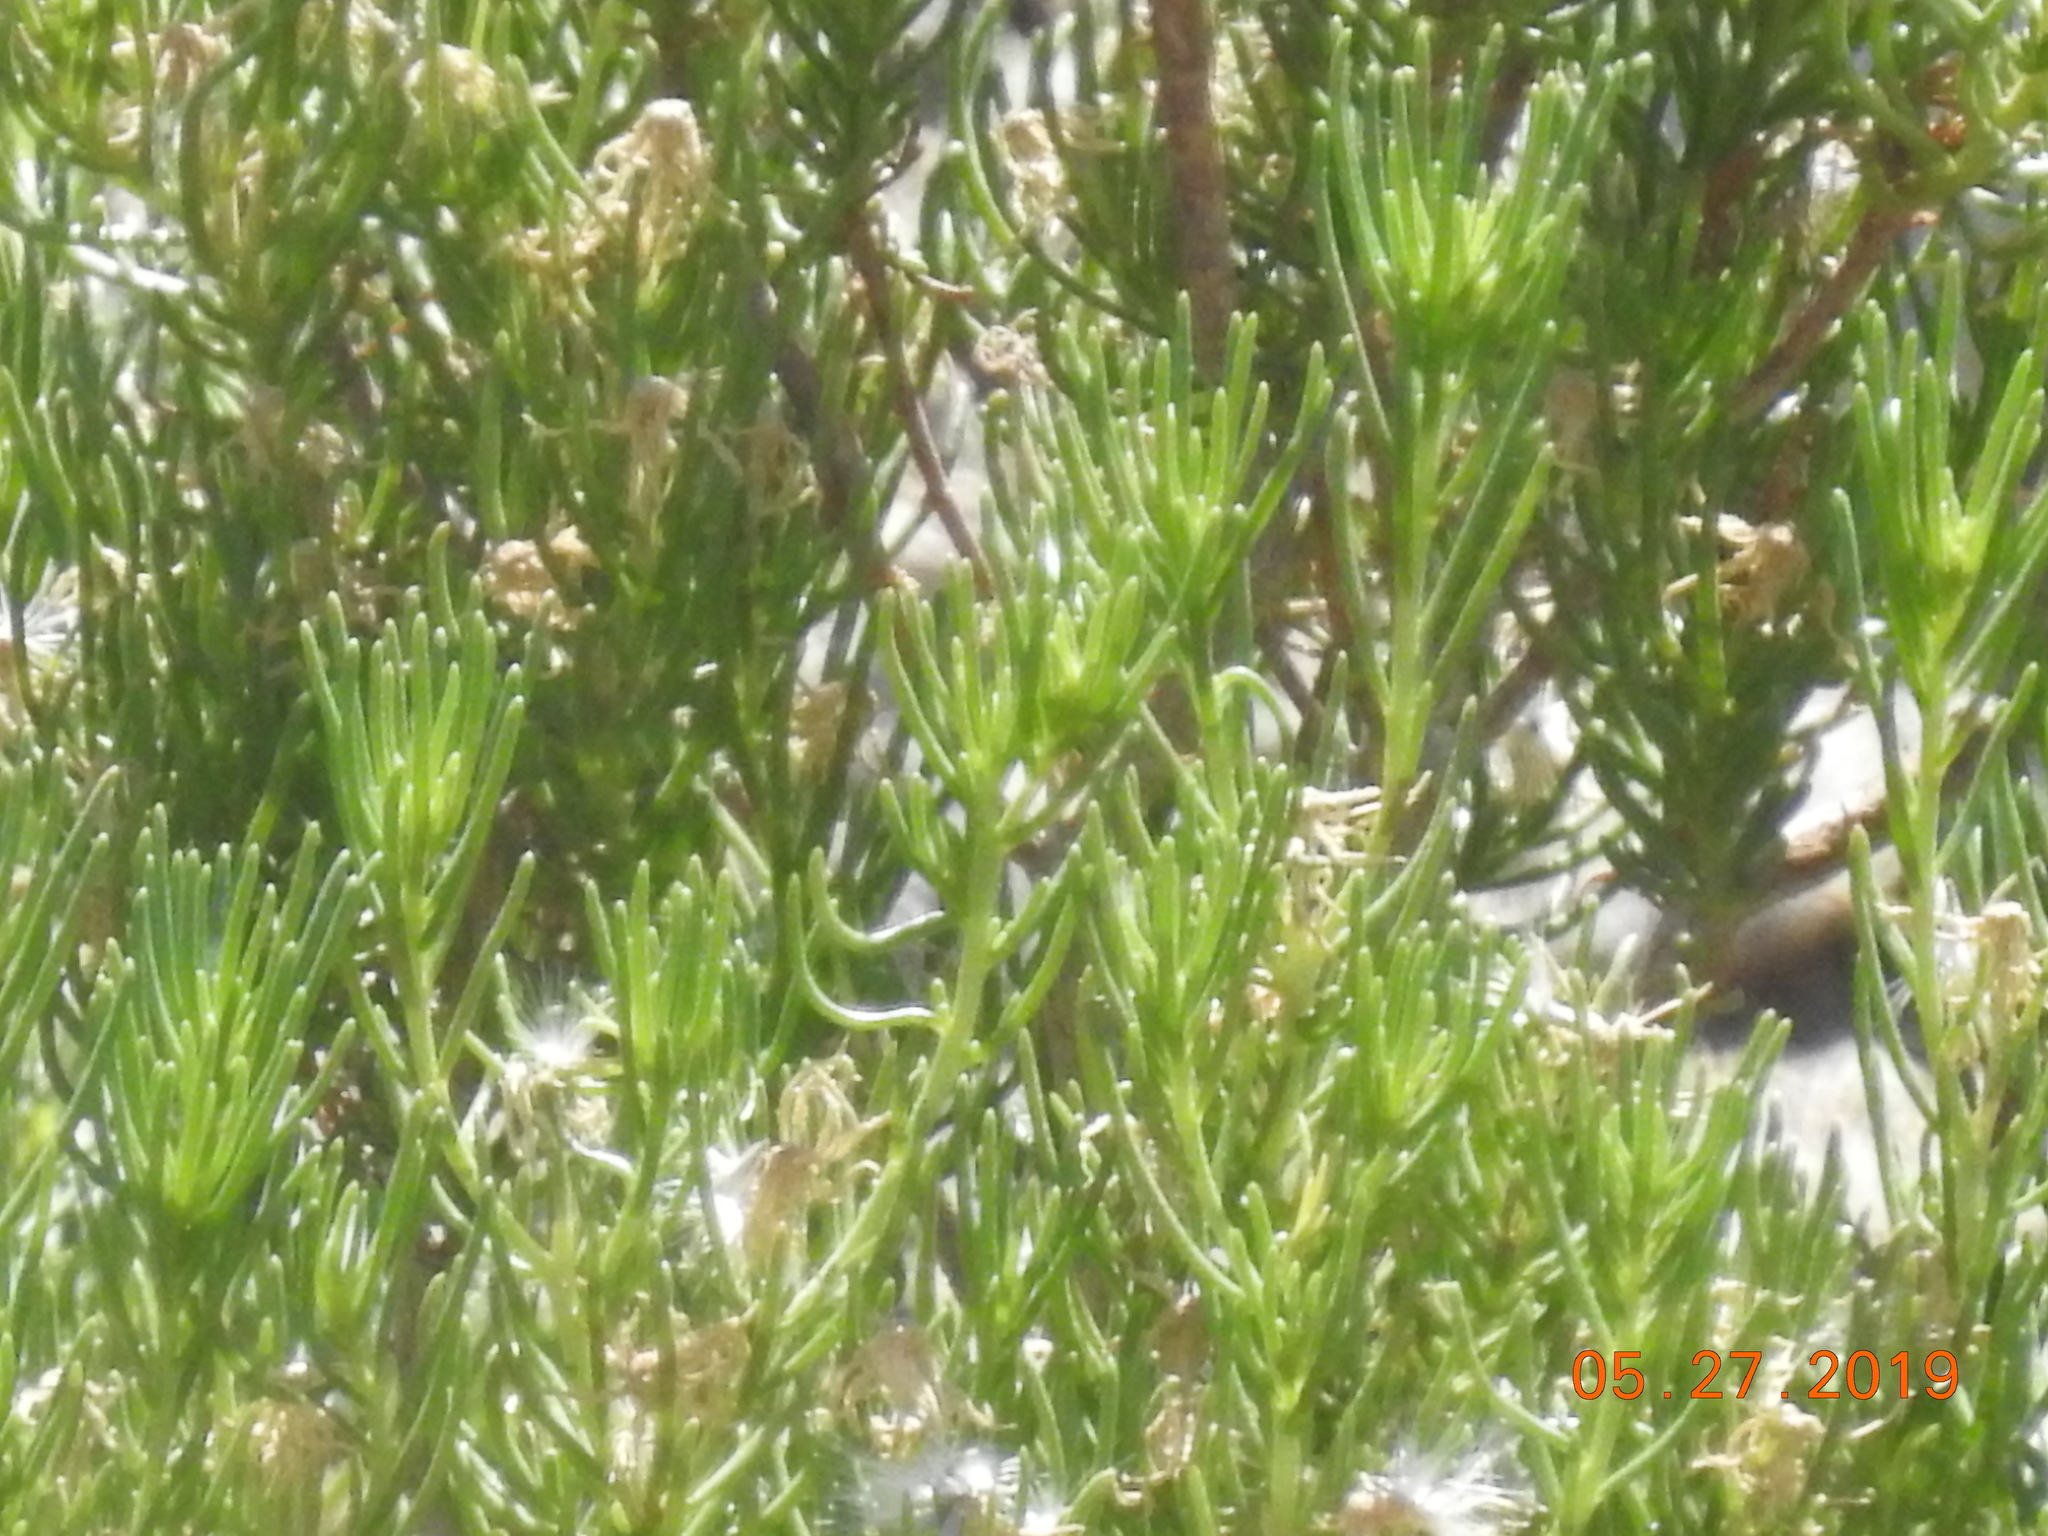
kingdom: Plantae
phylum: Tracheophyta
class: Magnoliopsida
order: Asterales
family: Asteraceae
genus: Peucephyllum
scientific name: Peucephyllum schottii
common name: Pygmy-cedar
